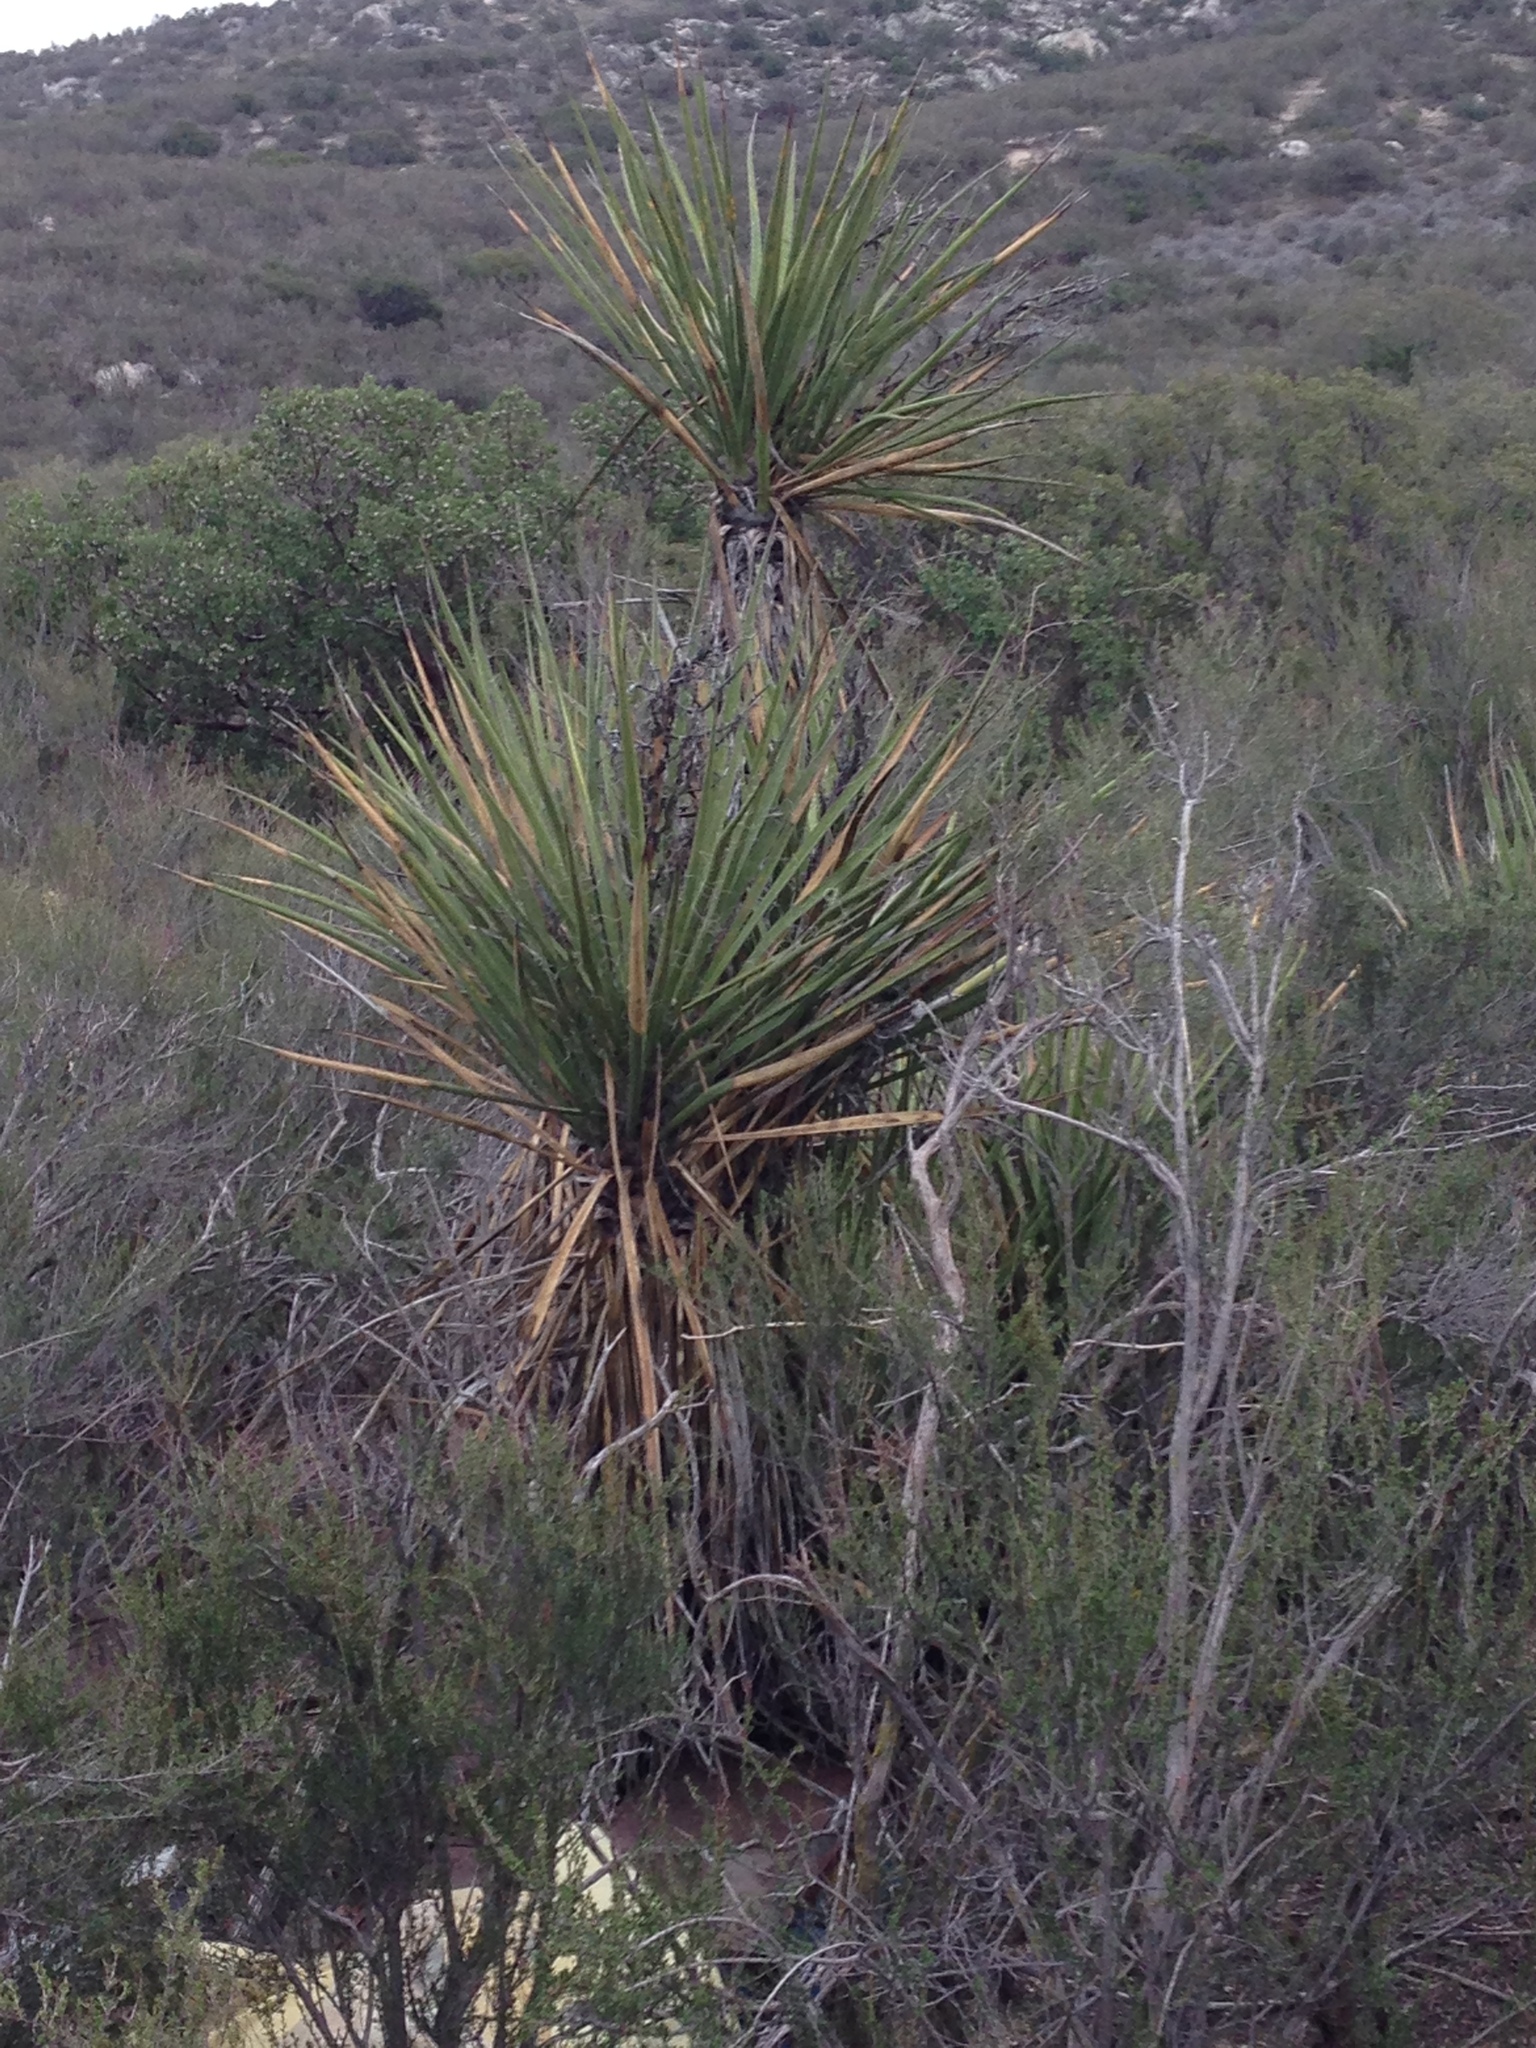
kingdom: Plantae
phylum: Tracheophyta
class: Liliopsida
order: Asparagales
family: Asparagaceae
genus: Yucca
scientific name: Yucca schidigera
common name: Mojave yucca
